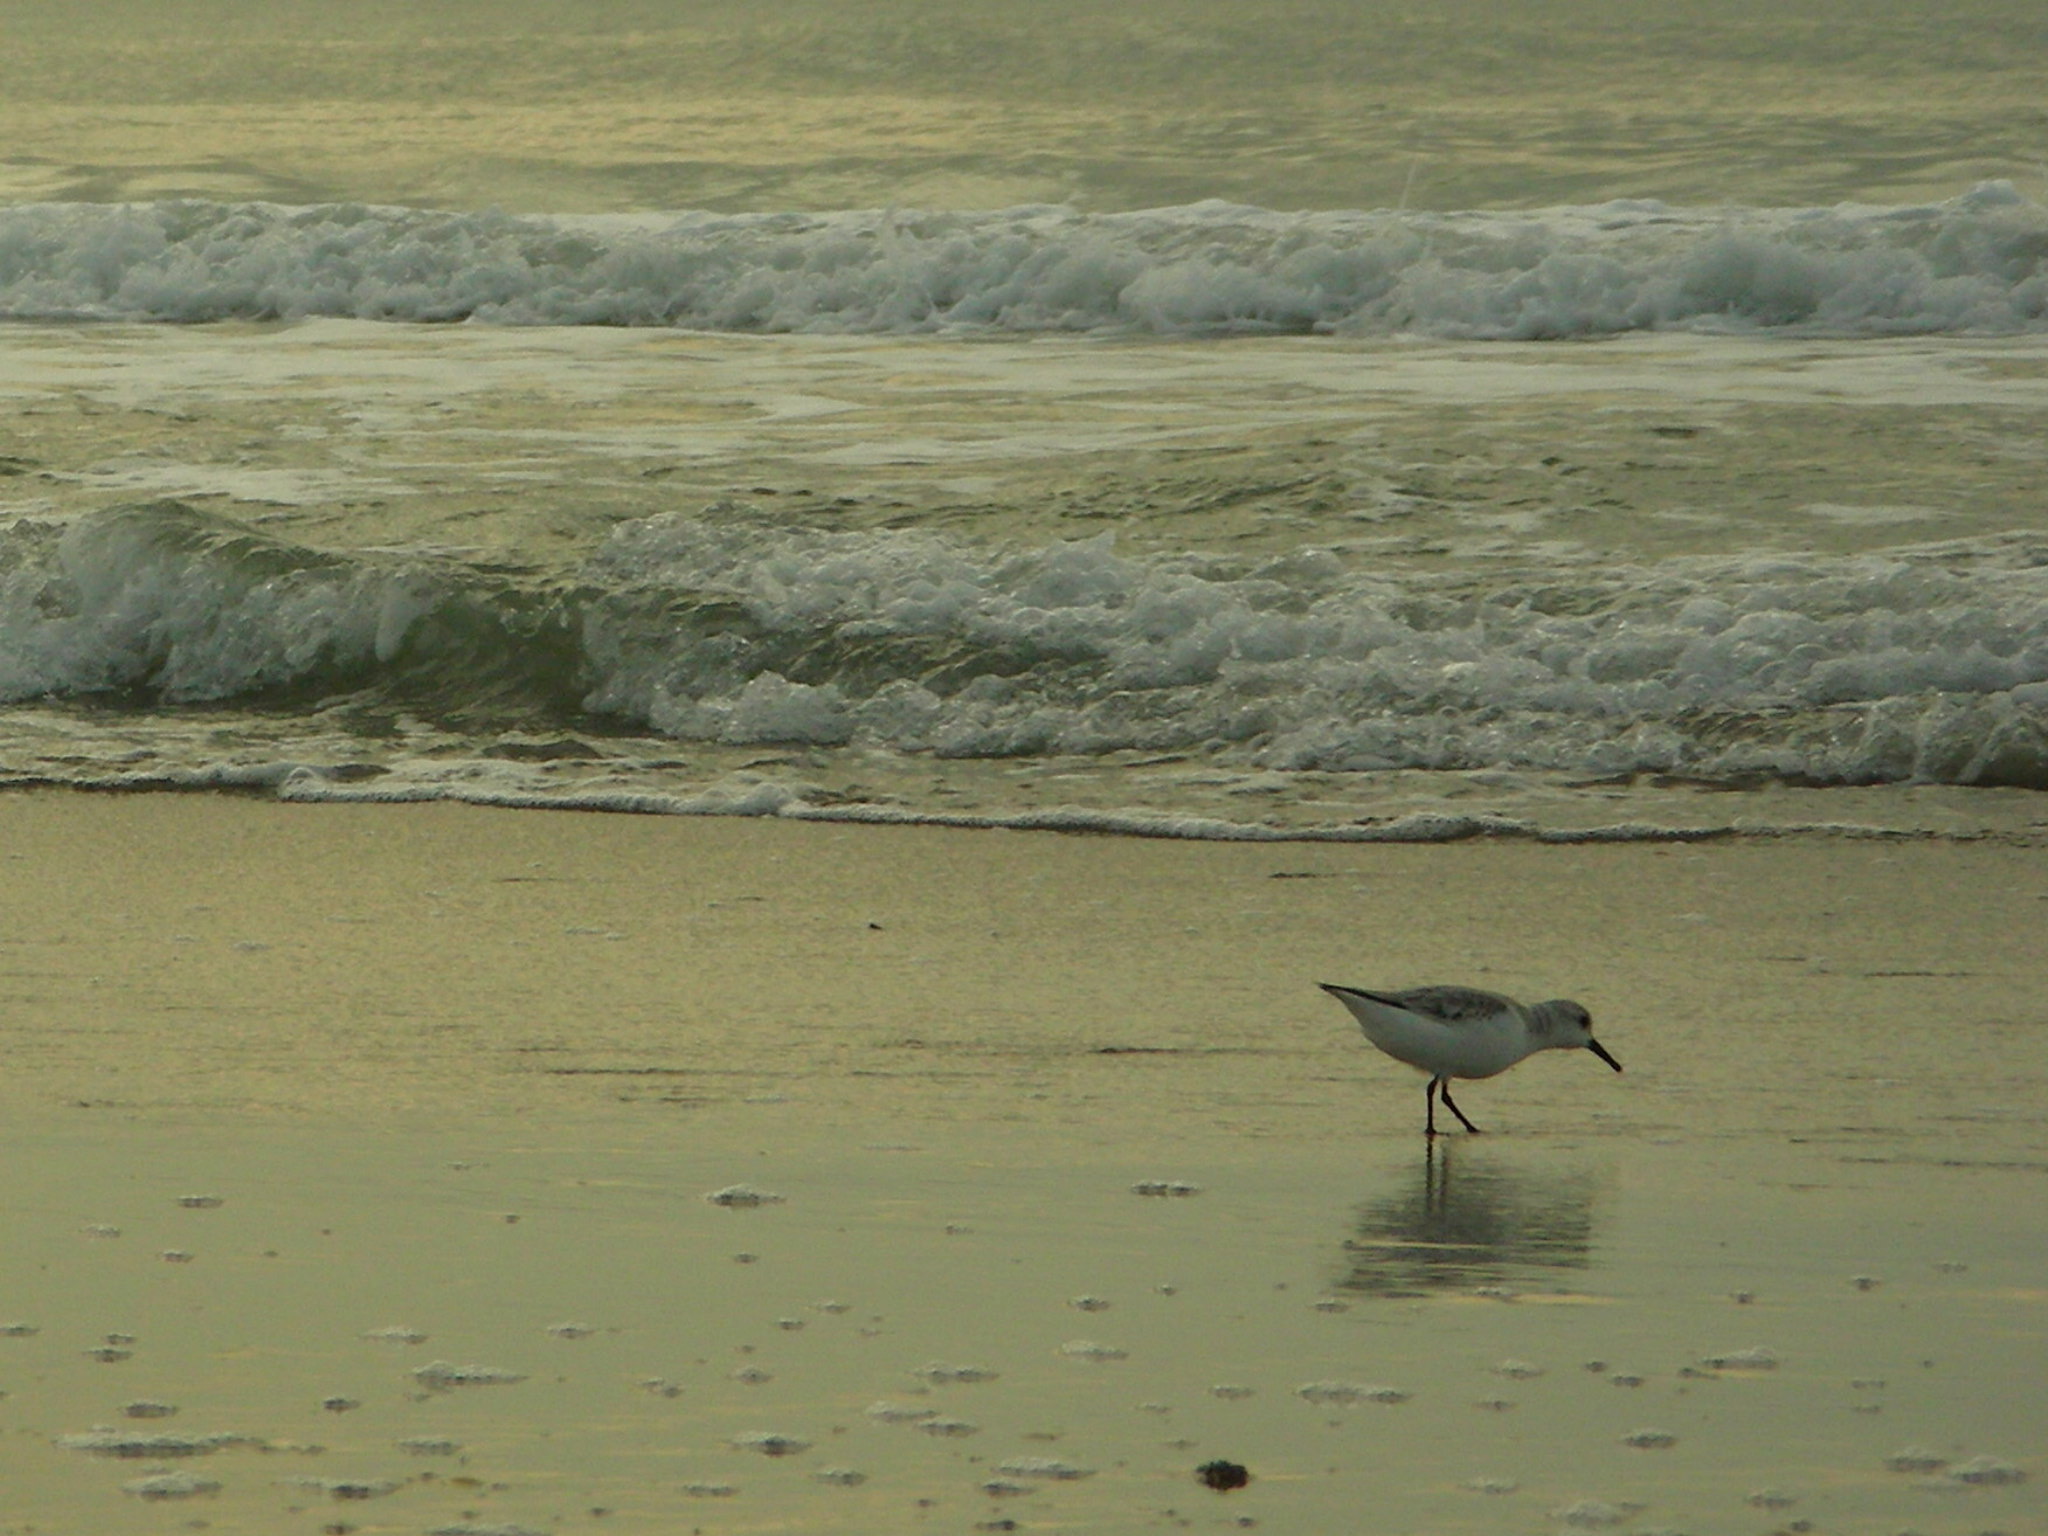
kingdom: Animalia
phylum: Chordata
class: Aves
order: Charadriiformes
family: Scolopacidae
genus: Calidris
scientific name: Calidris alba
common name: Sanderling
